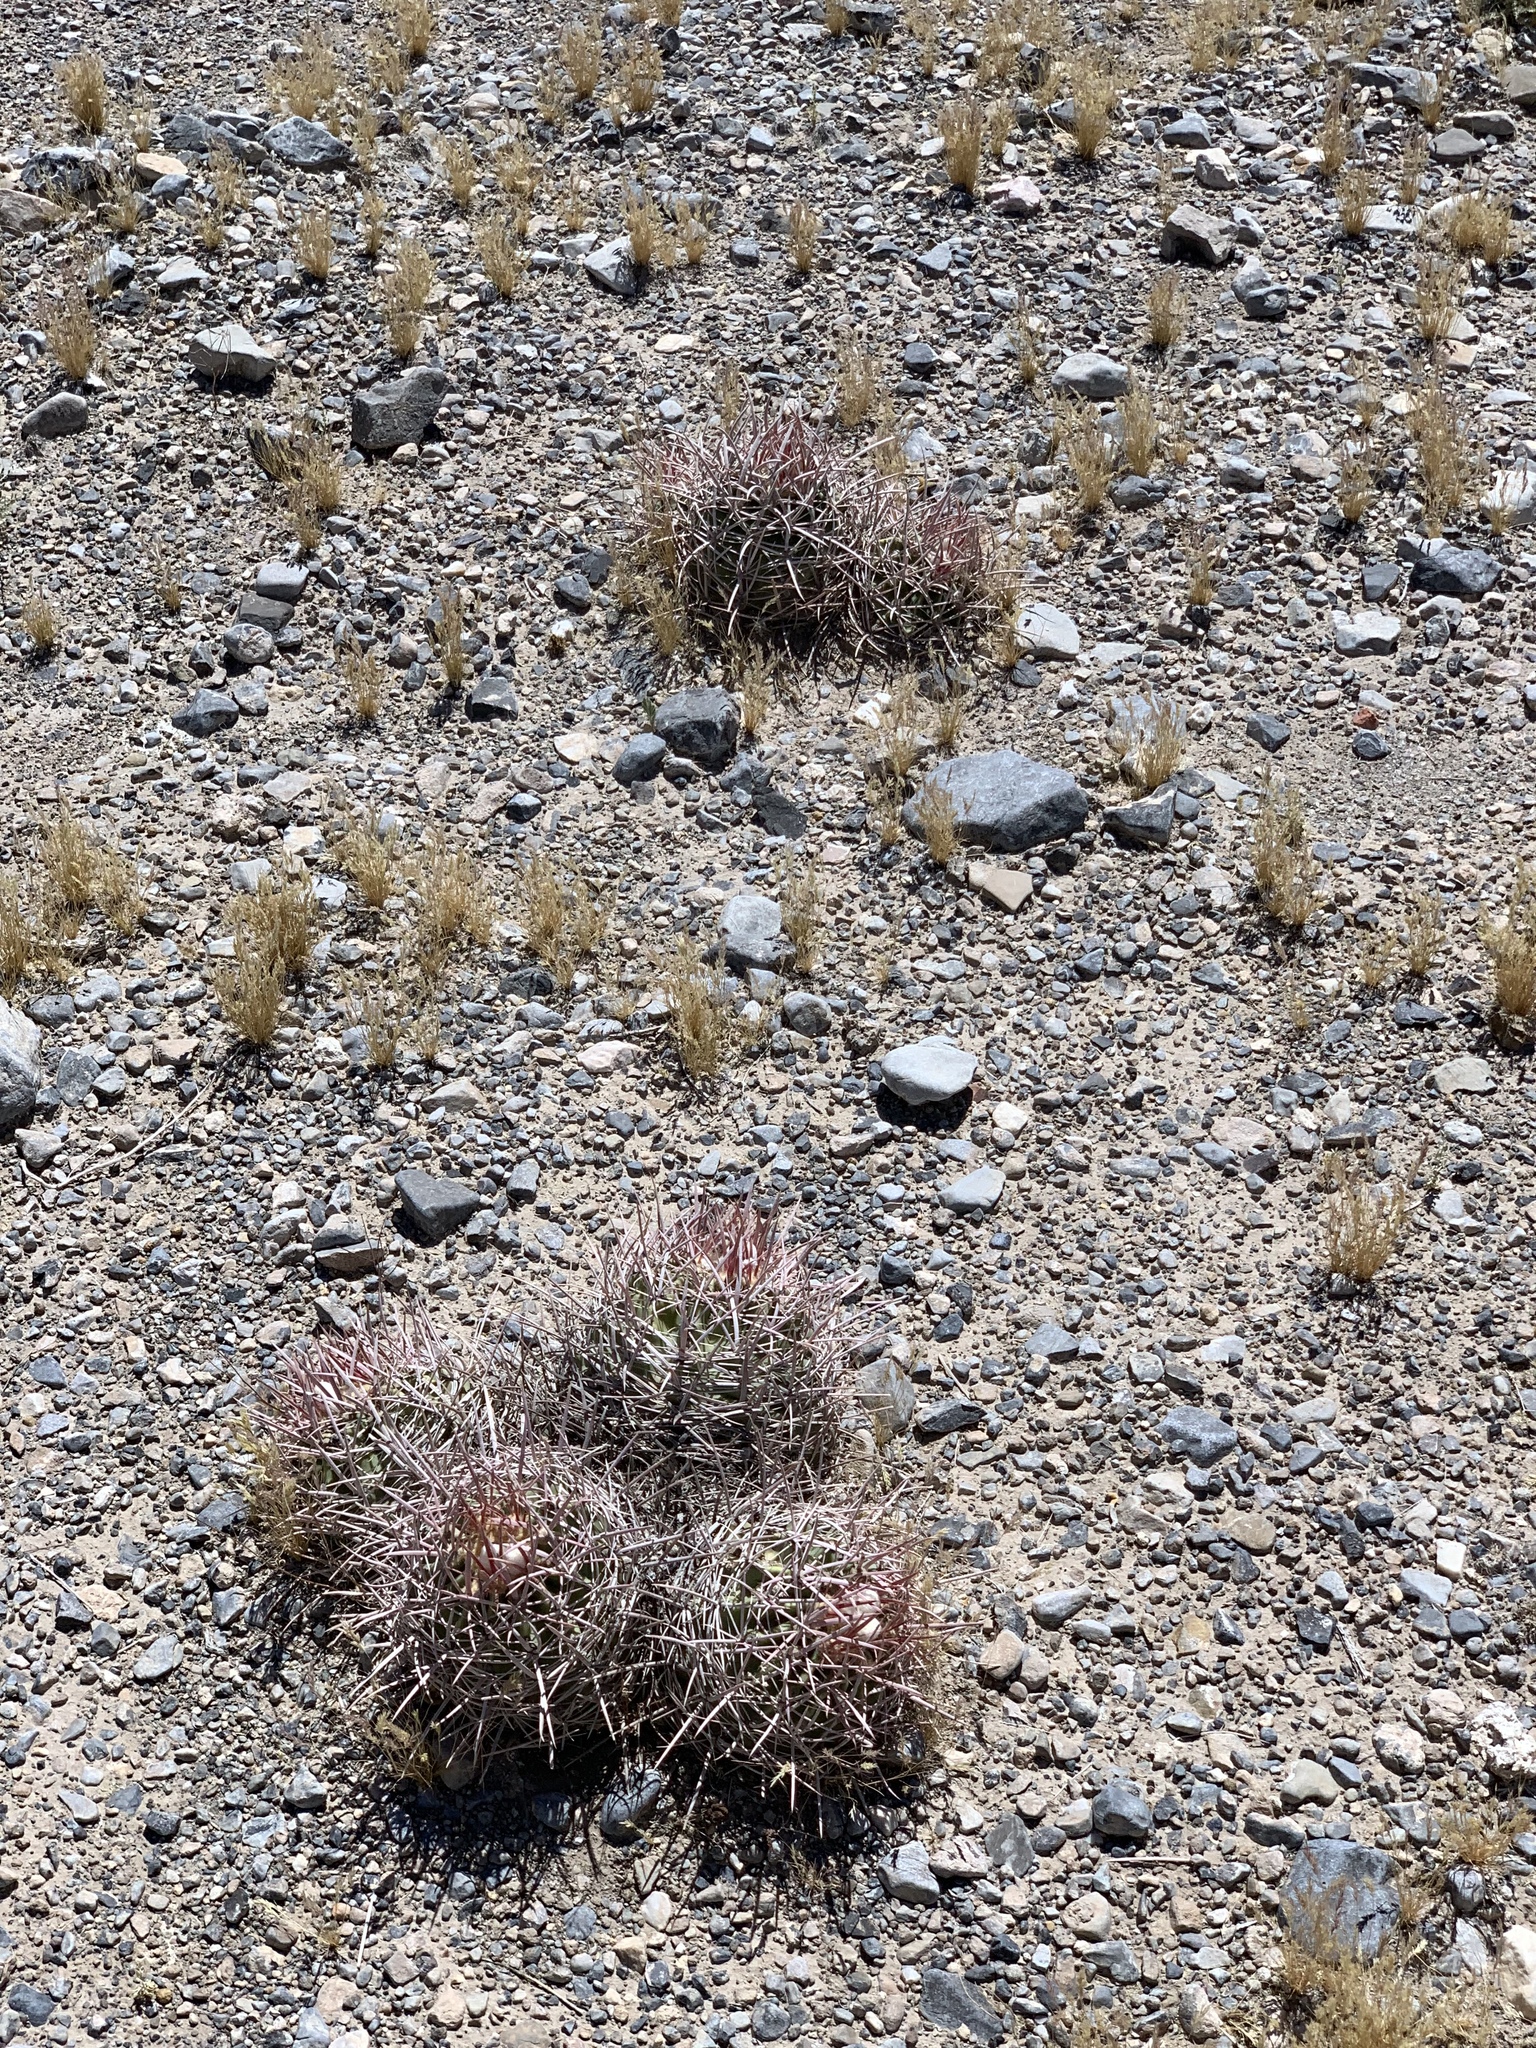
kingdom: Plantae
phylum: Tracheophyta
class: Magnoliopsida
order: Caryophyllales
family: Cactaceae
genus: Echinocactus
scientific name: Echinocactus polycephalus
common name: Cottontop cactus
